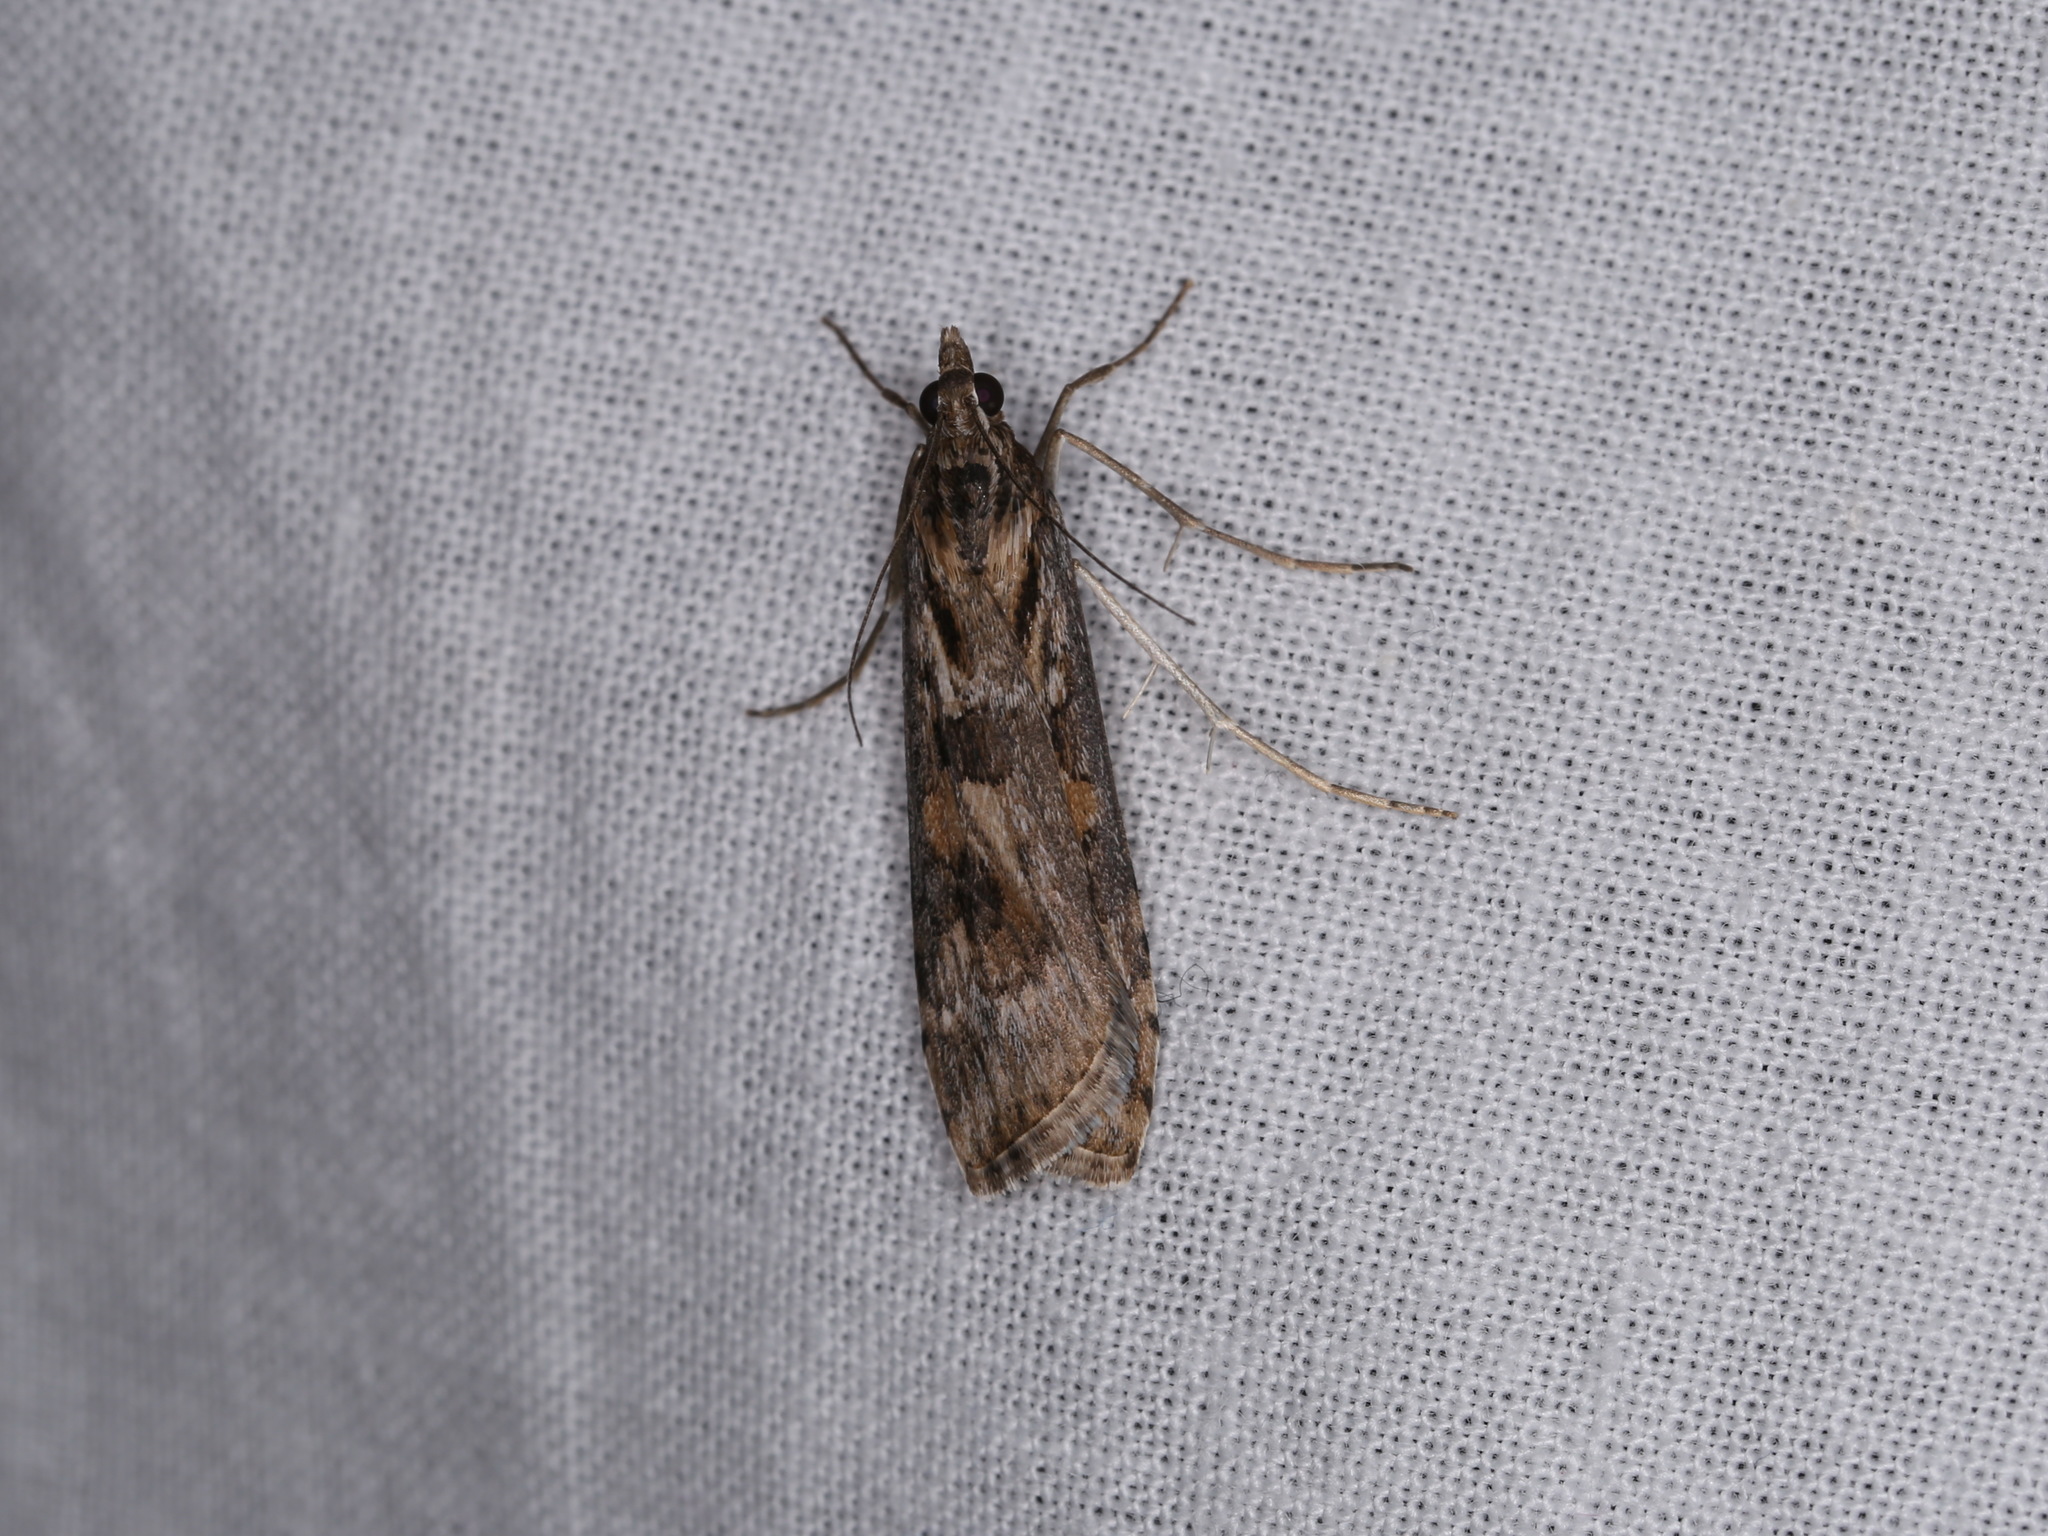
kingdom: Animalia
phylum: Arthropoda
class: Insecta
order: Lepidoptera
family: Crambidae
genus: Nomophila
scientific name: Nomophila corticalis
